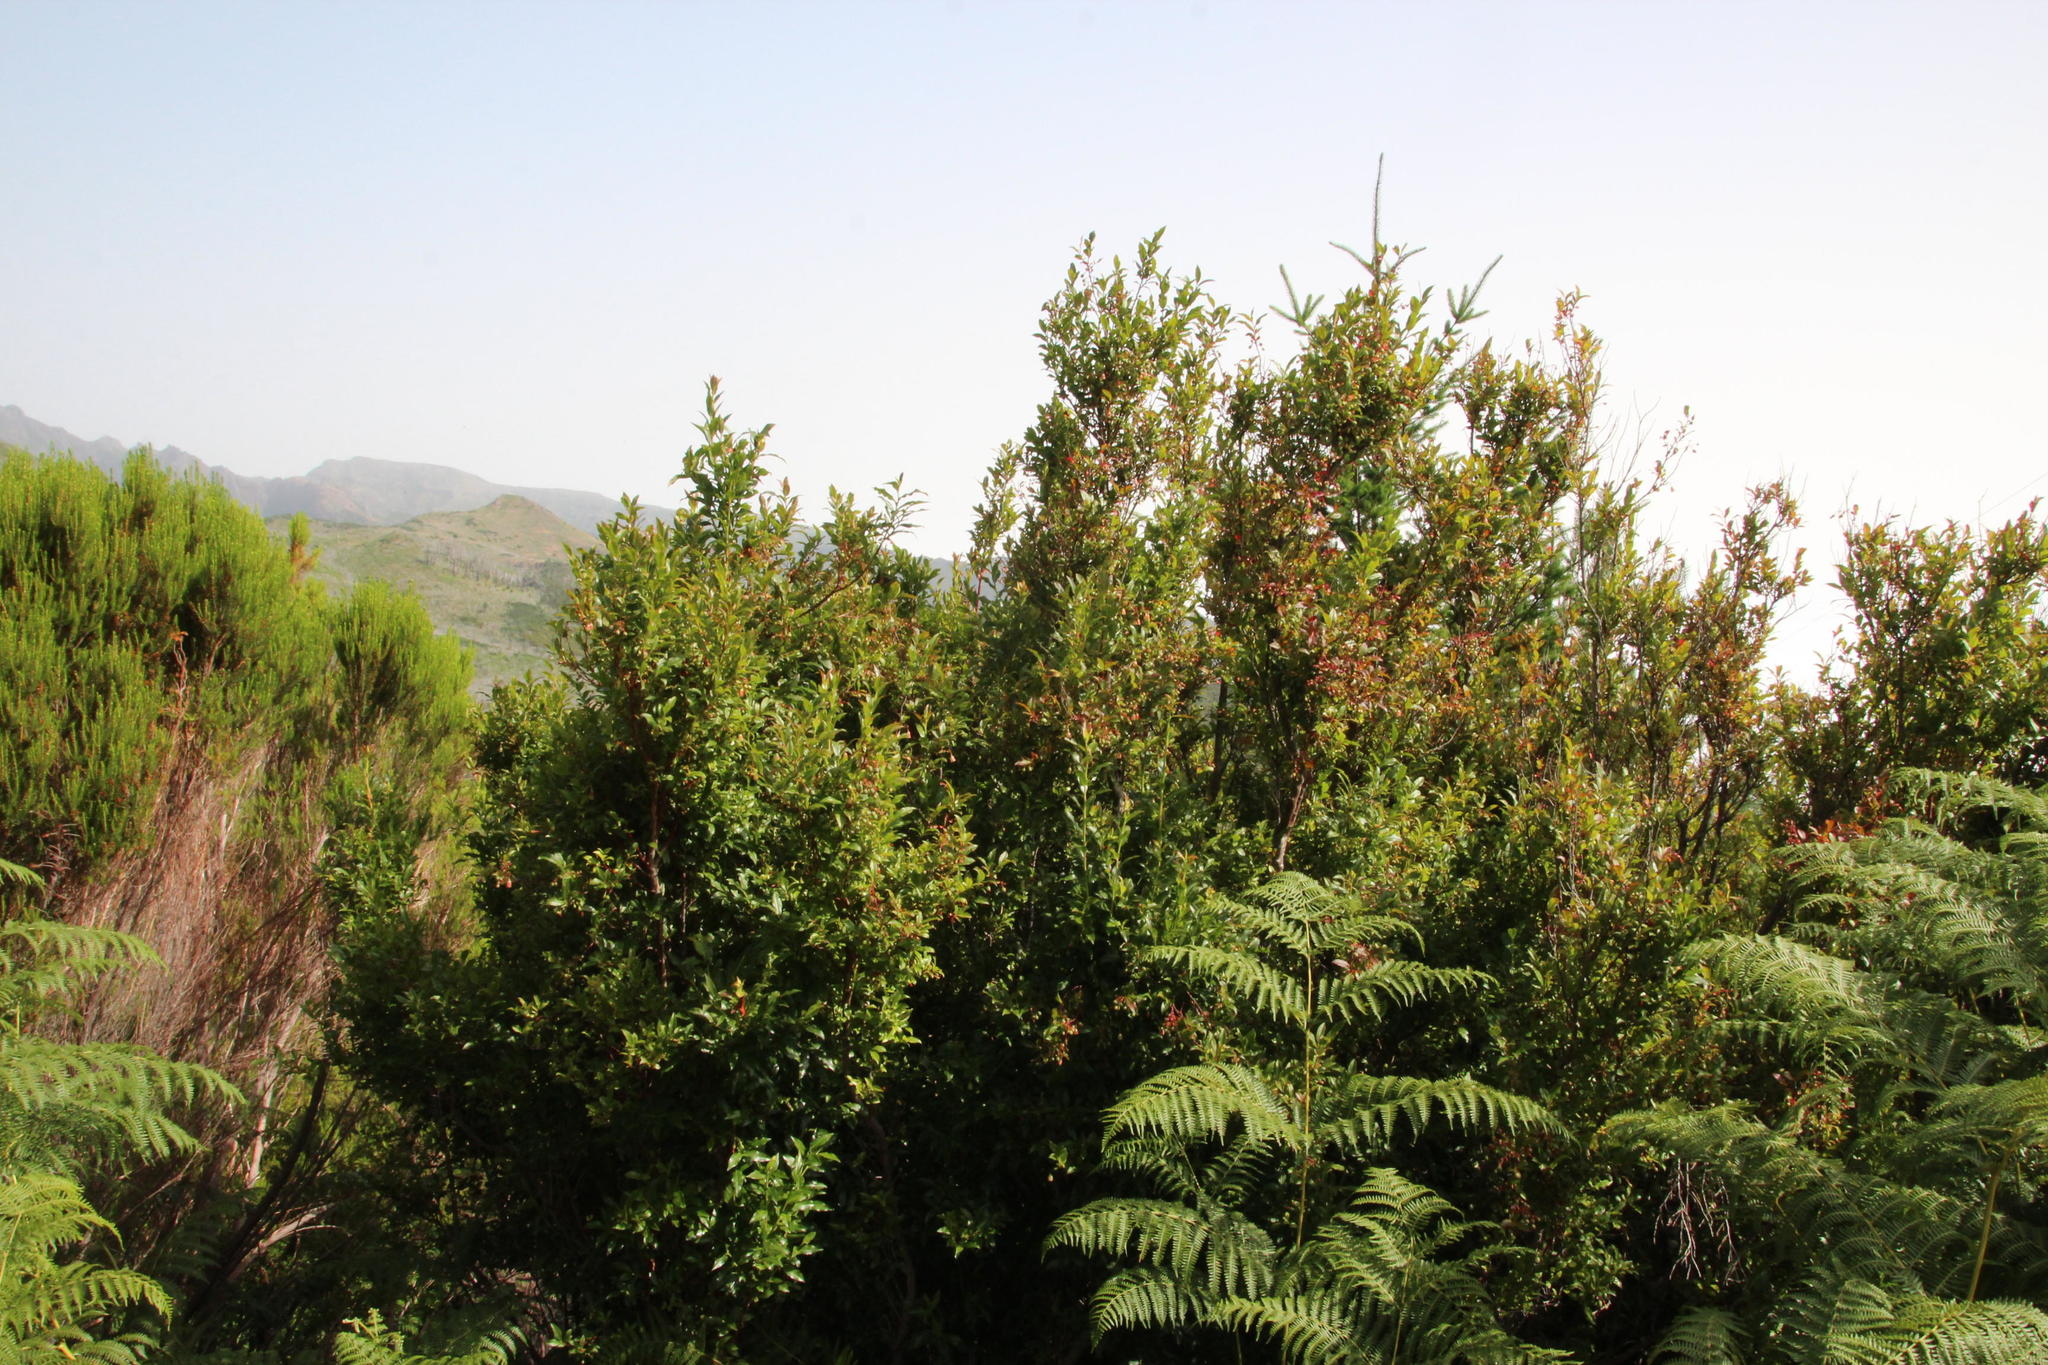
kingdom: Plantae
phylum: Tracheophyta
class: Polypodiopsida
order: Polypodiales
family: Dennstaedtiaceae
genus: Pteridium
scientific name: Pteridium aquilinum
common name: Bracken
